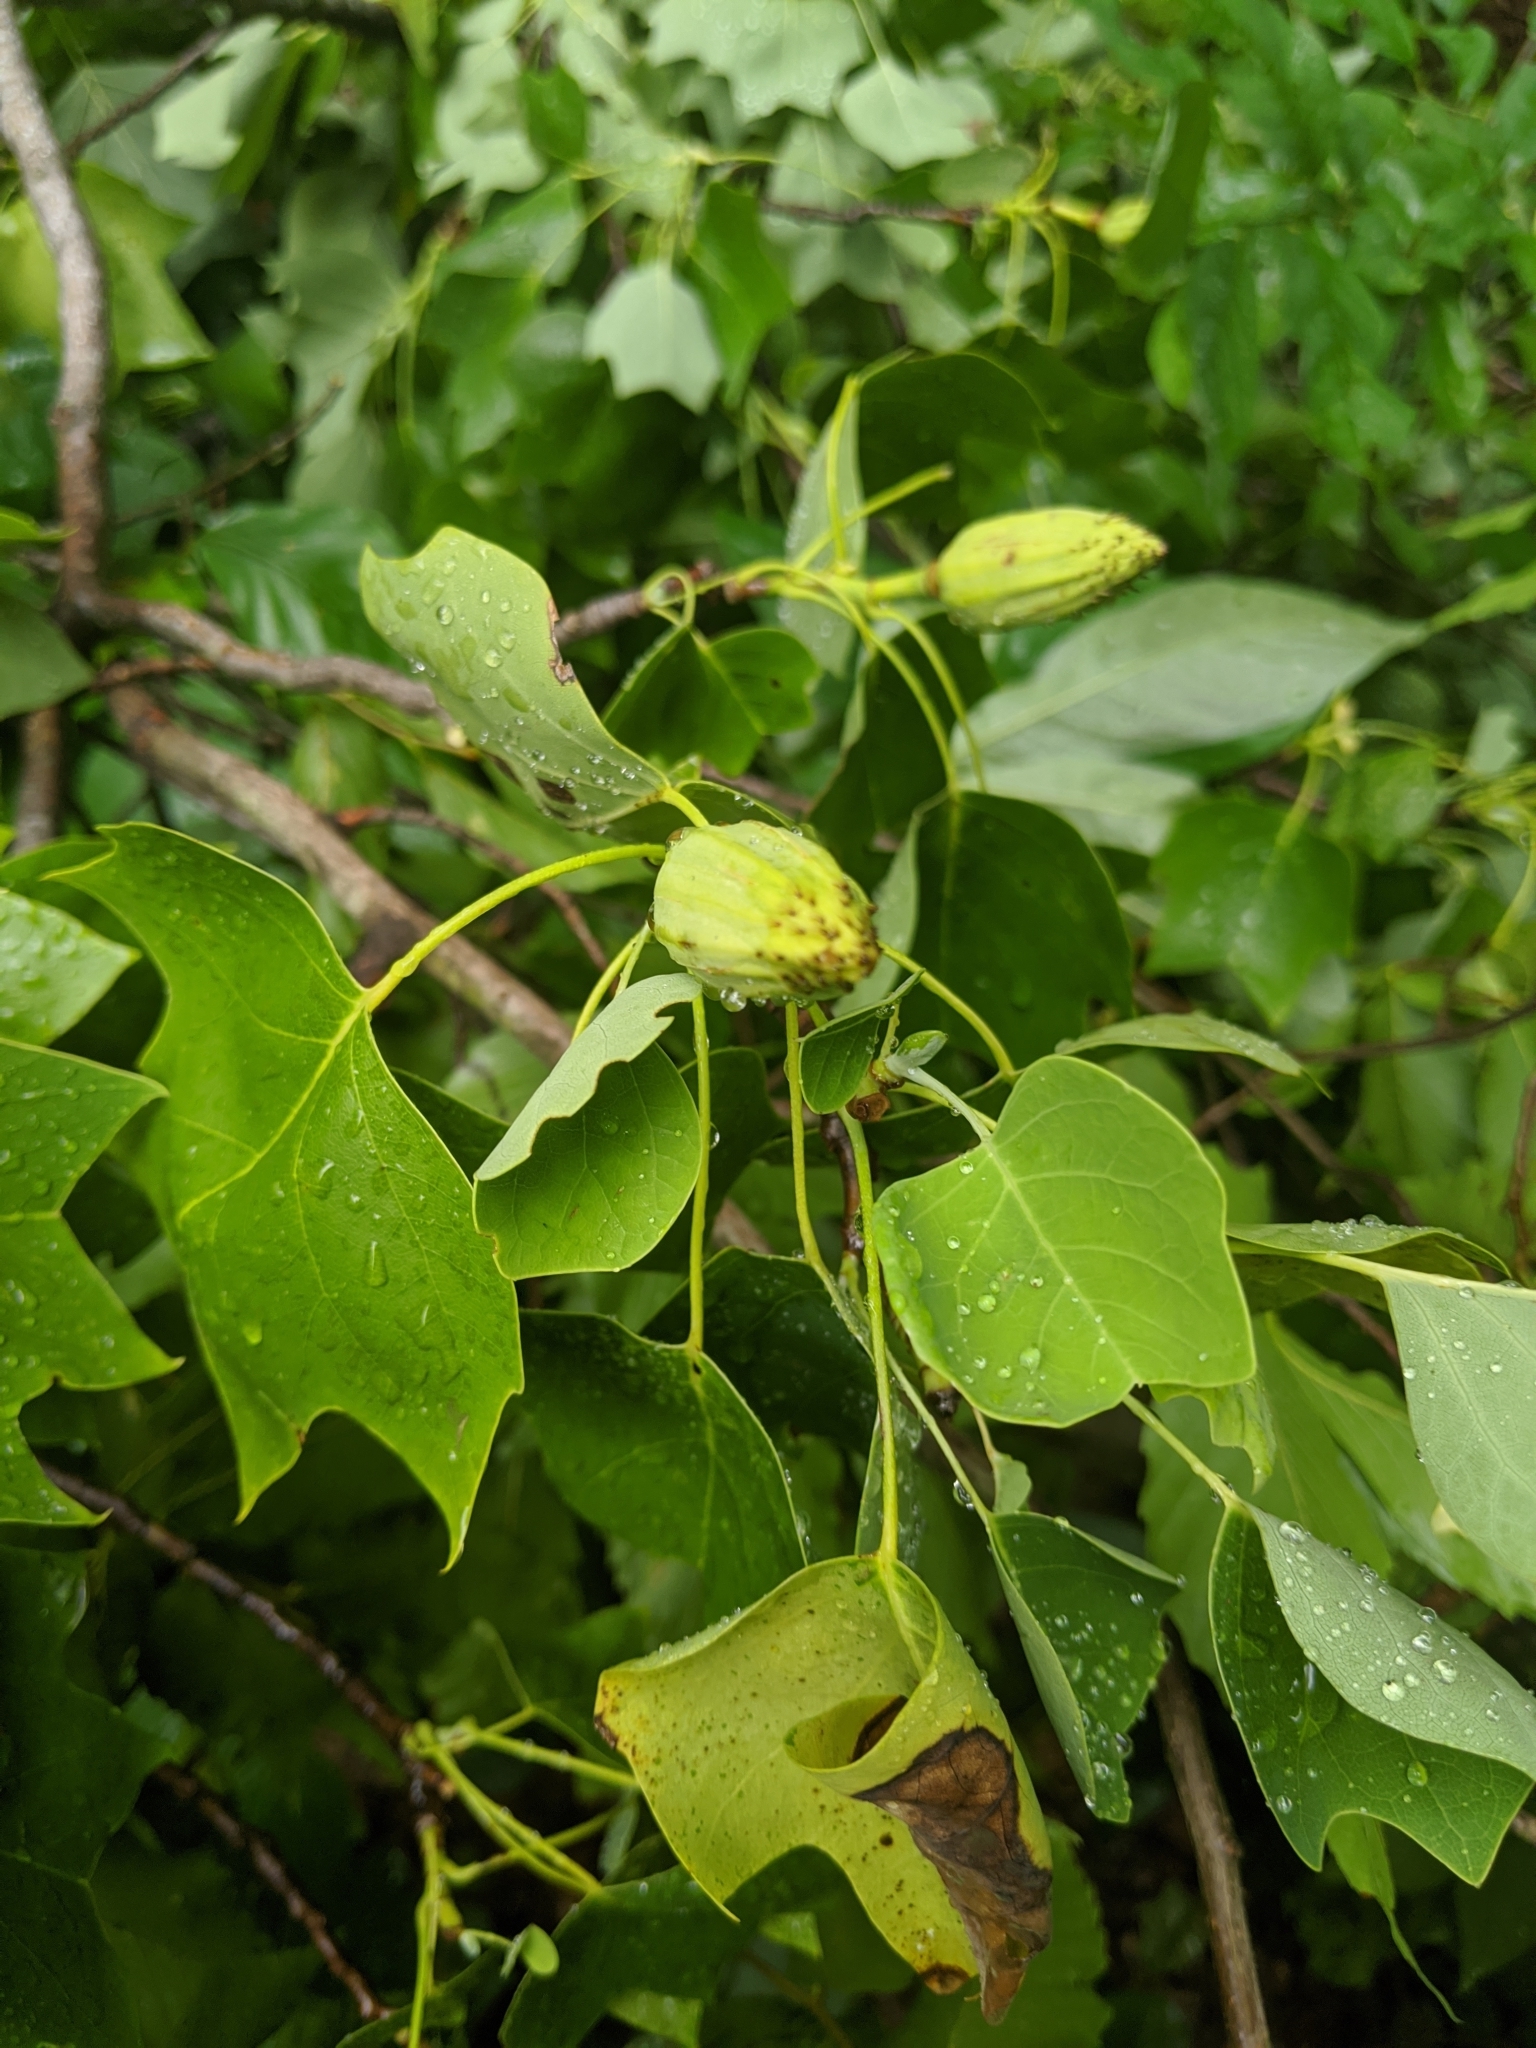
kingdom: Plantae
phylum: Tracheophyta
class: Magnoliopsida
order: Magnoliales
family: Magnoliaceae
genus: Liriodendron
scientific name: Liriodendron tulipifera
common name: Tulip tree
